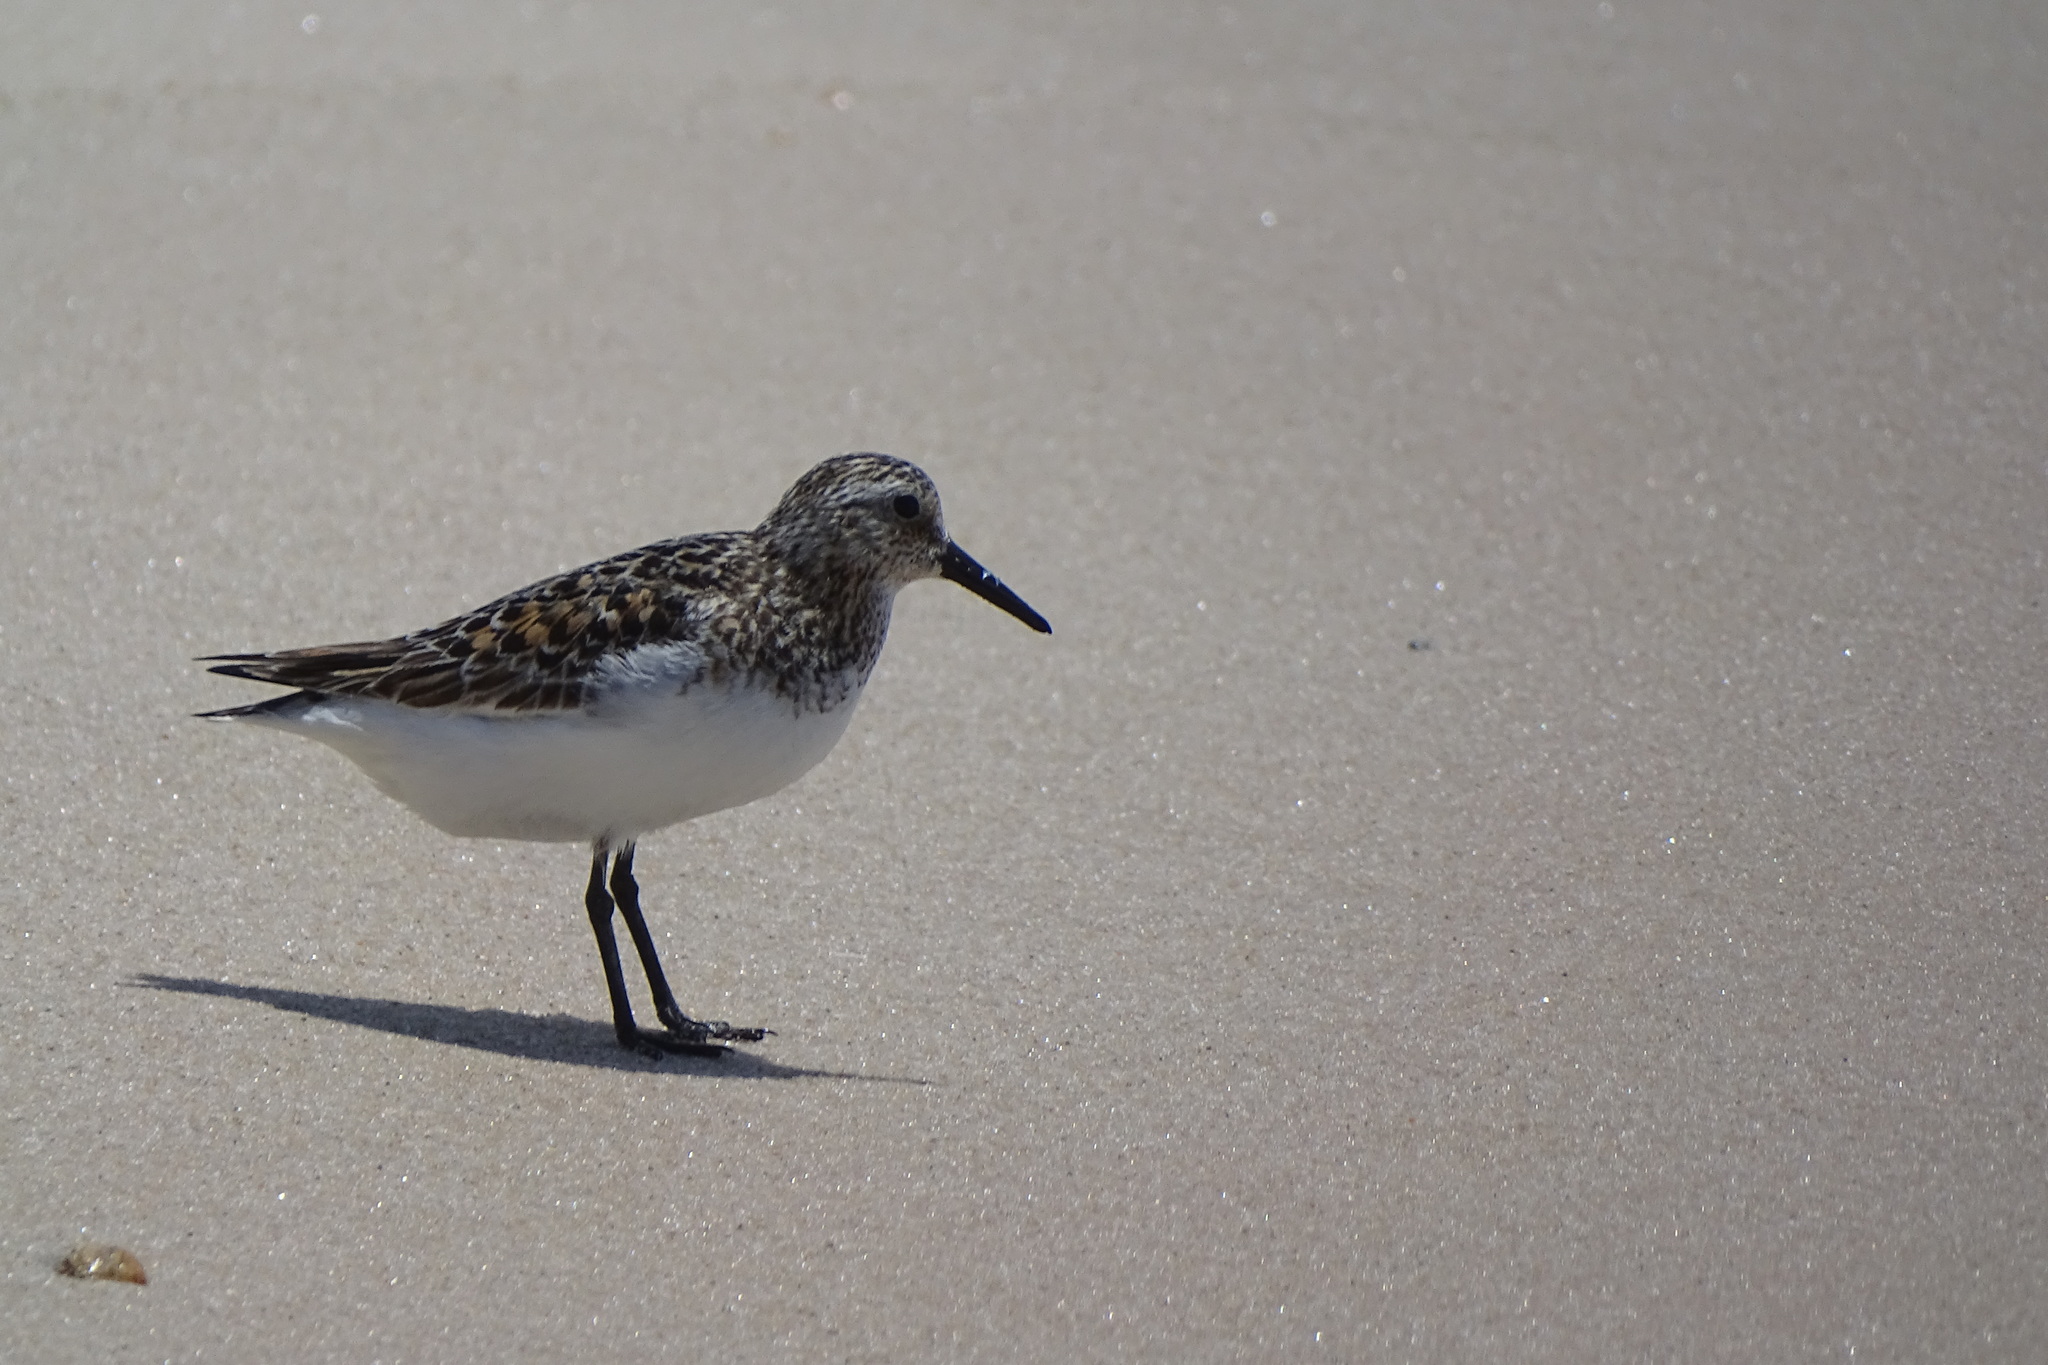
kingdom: Animalia
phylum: Chordata
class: Aves
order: Charadriiformes
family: Scolopacidae
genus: Calidris
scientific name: Calidris alba
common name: Sanderling
